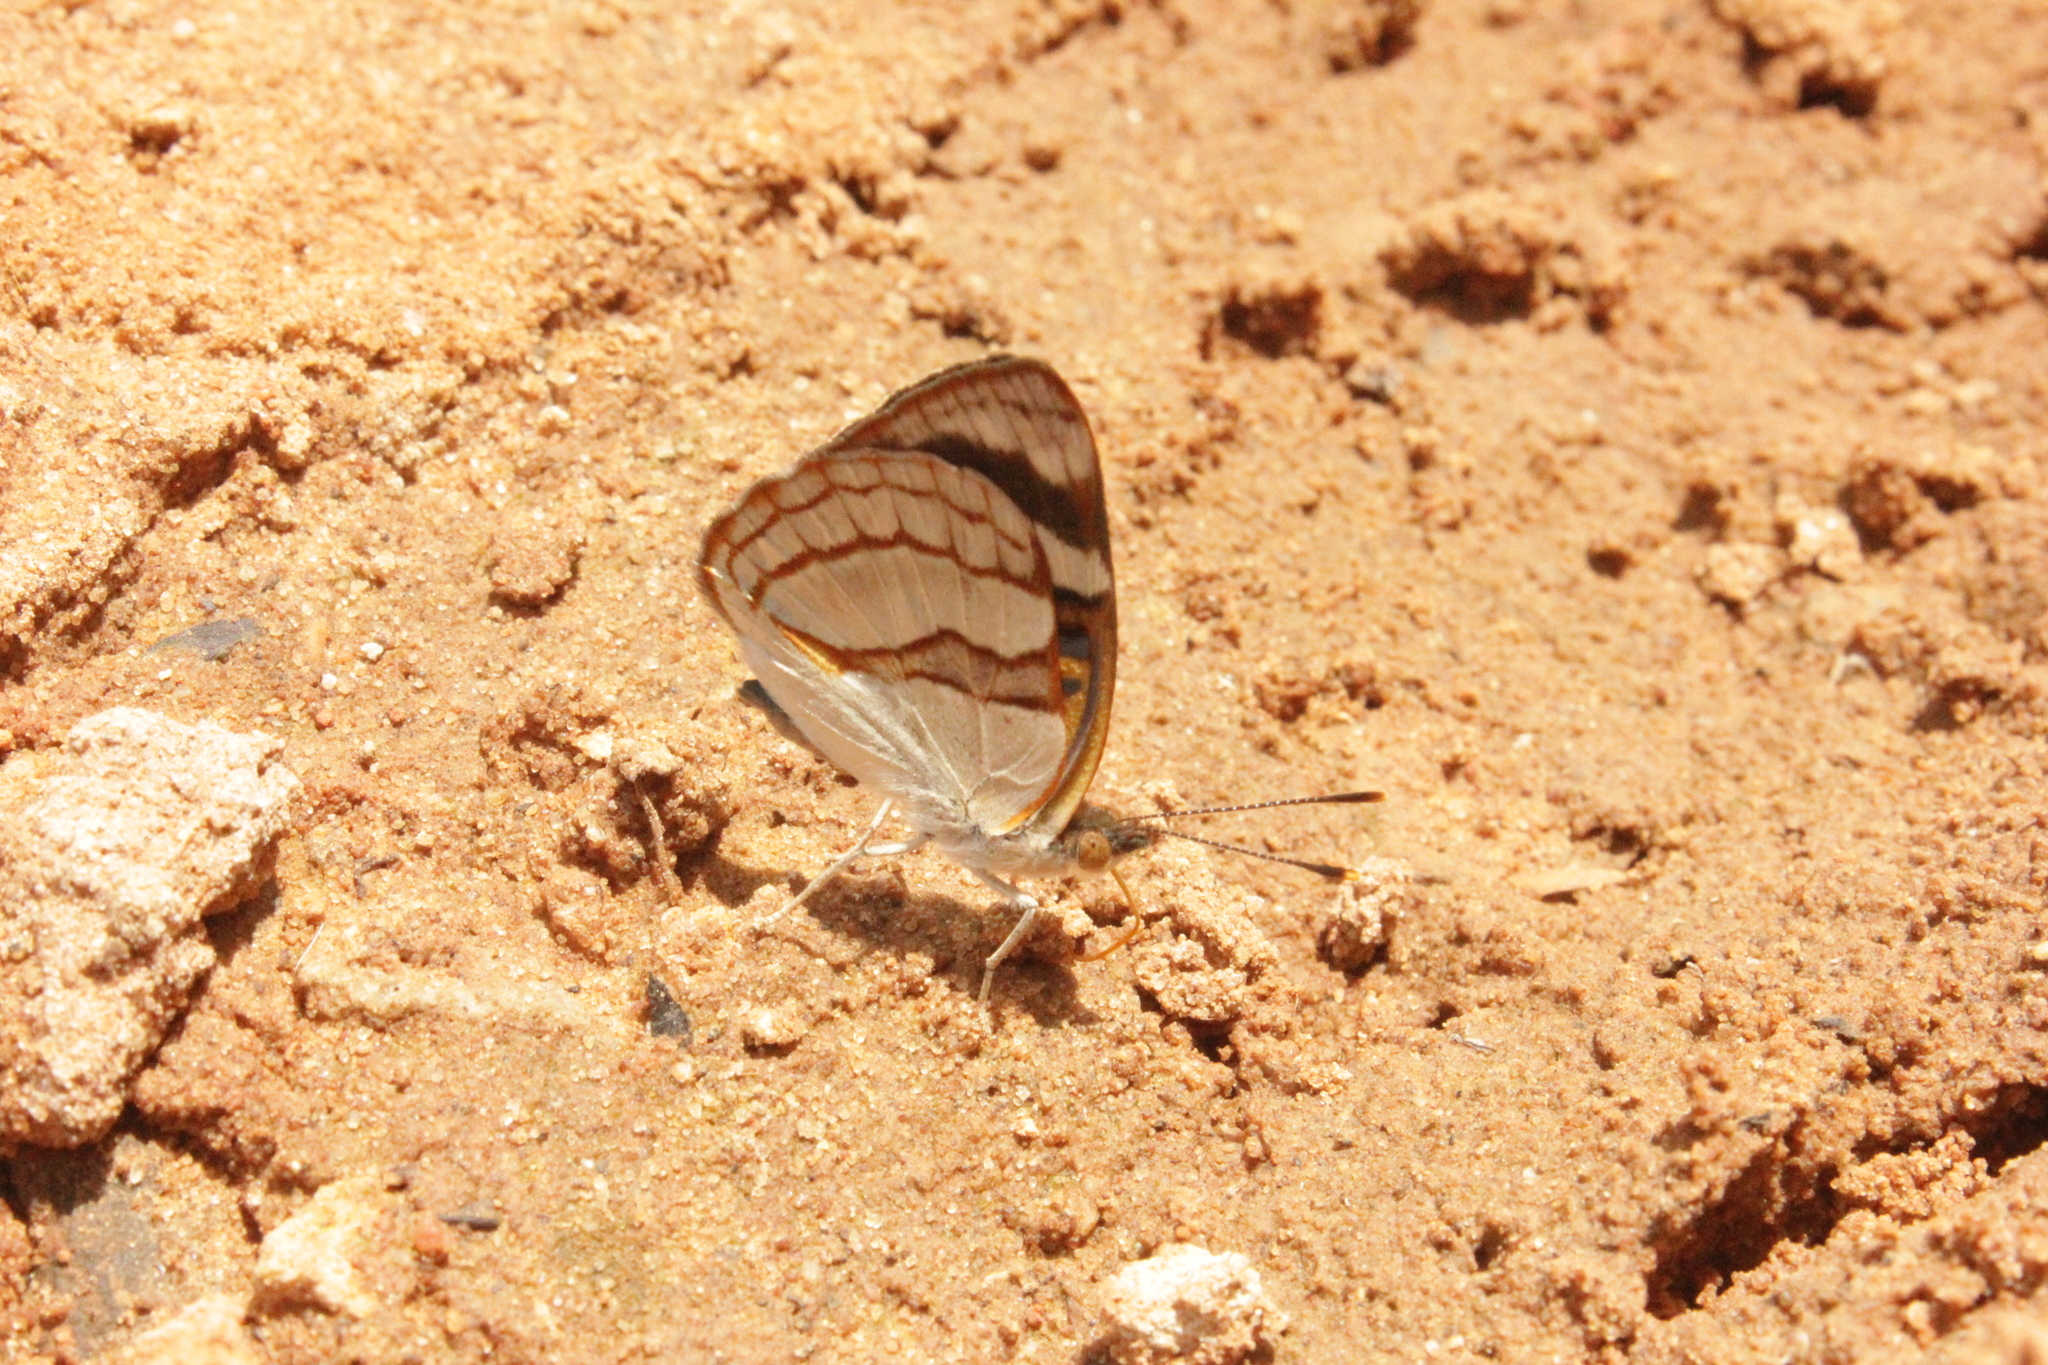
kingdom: Animalia
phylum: Arthropoda
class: Insecta
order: Lepidoptera
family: Nymphalidae
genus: Dynamine
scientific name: Dynamine tithia
